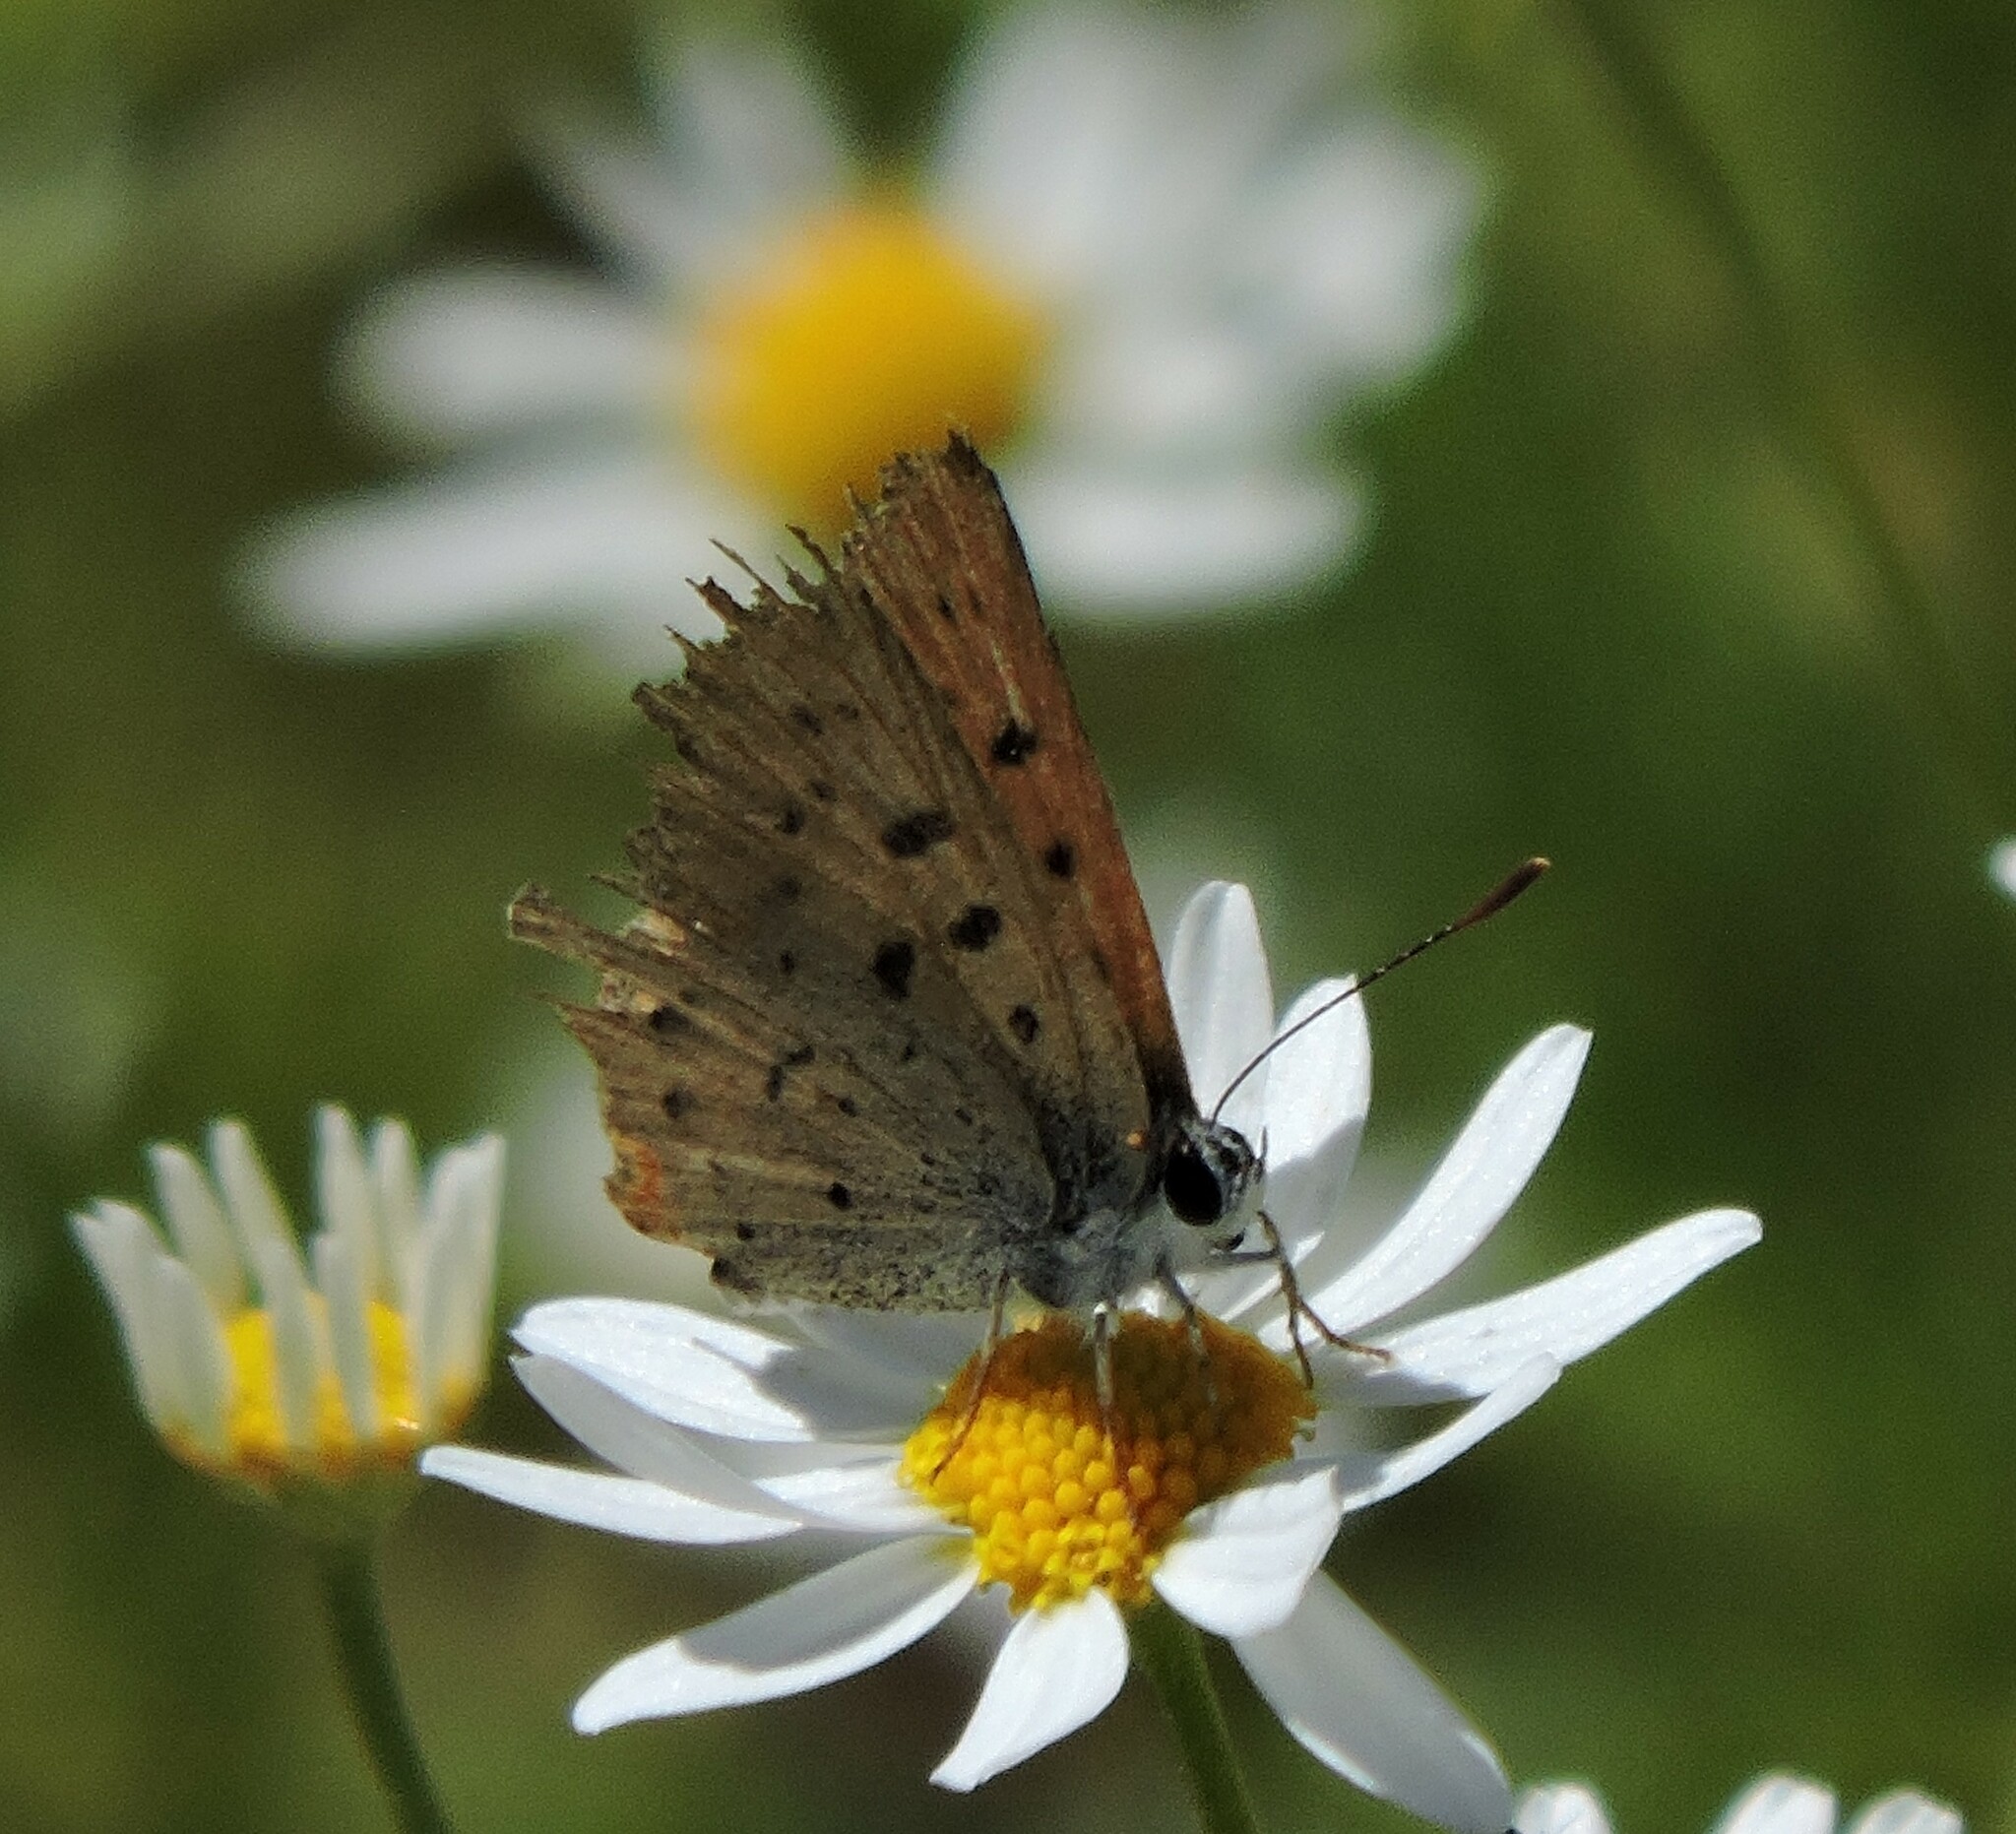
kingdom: Animalia
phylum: Arthropoda
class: Insecta
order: Lepidoptera
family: Lycaenidae
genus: Tharsalea
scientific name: Tharsalea helloides
